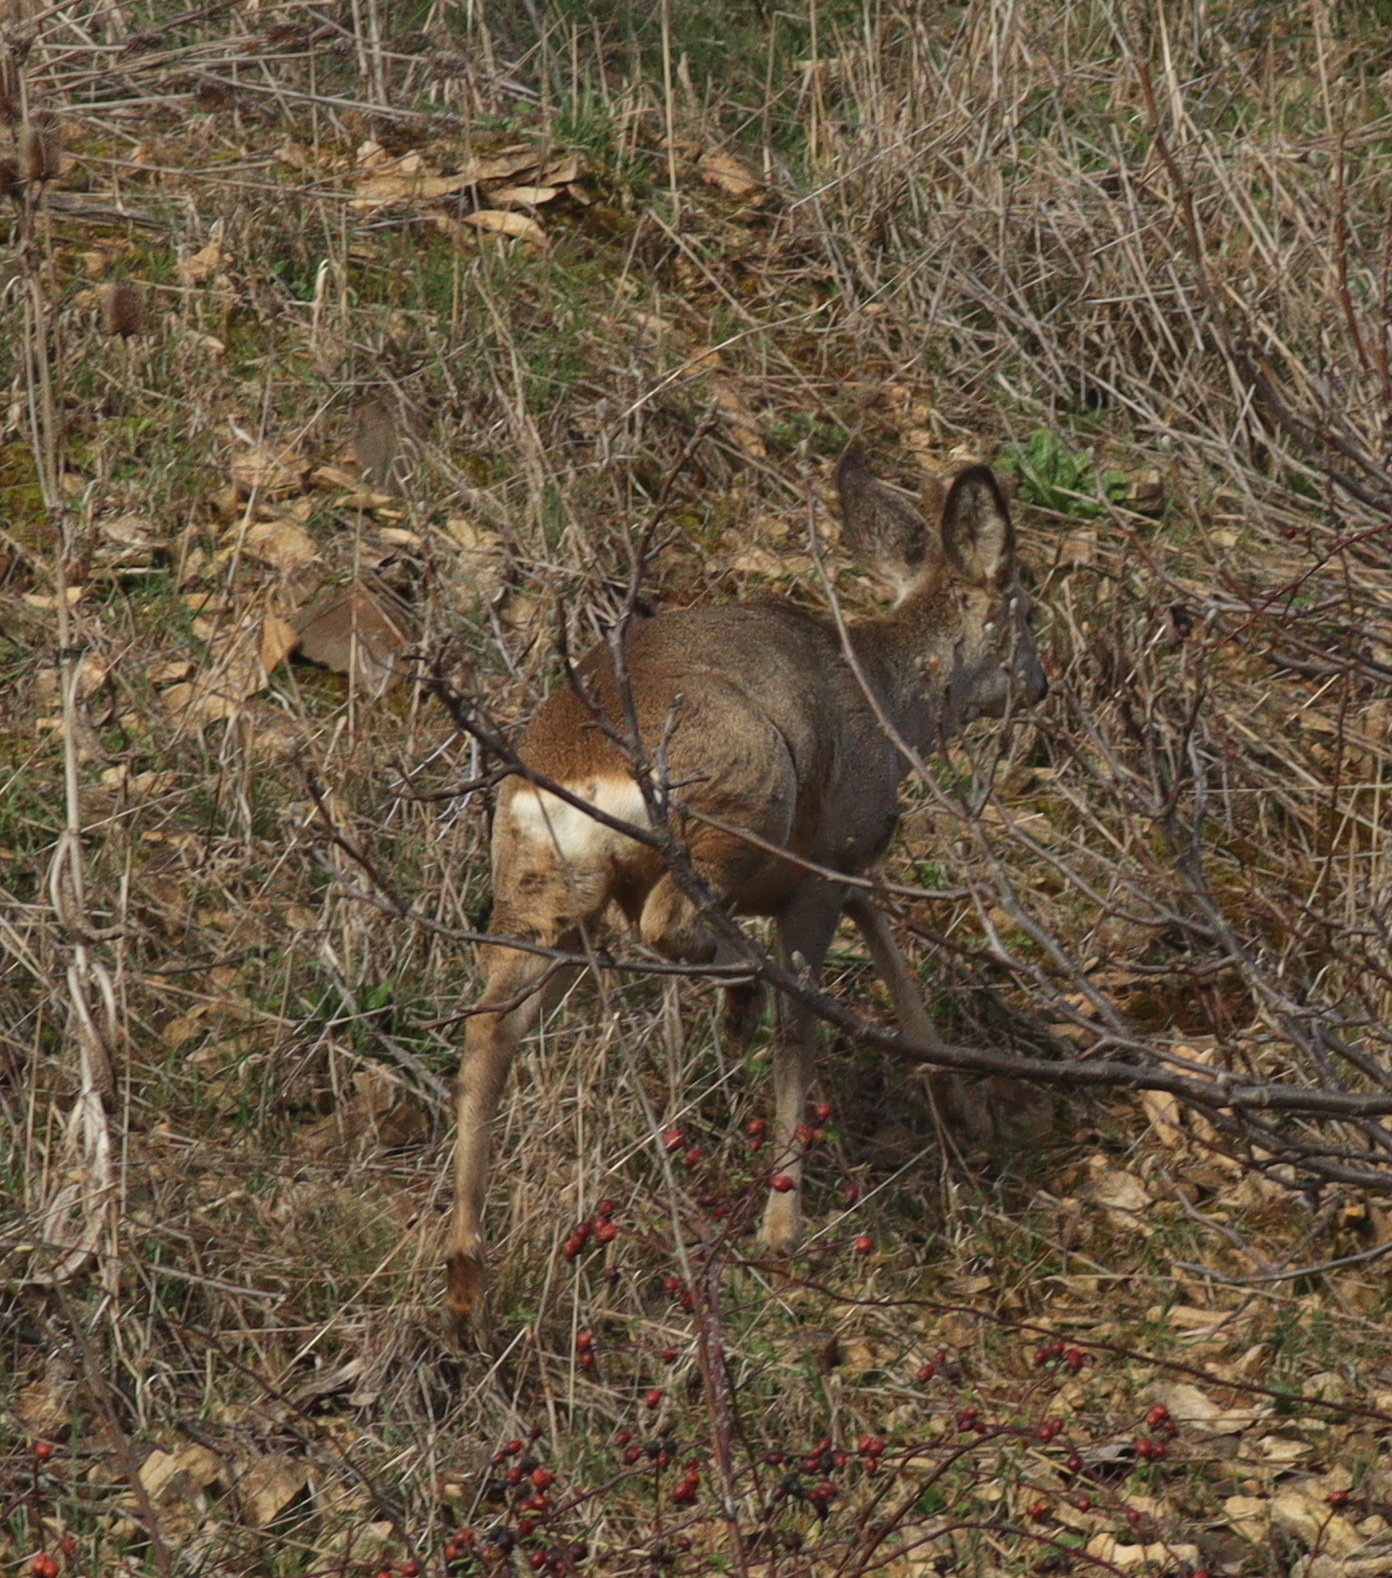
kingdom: Animalia
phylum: Chordata
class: Mammalia
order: Artiodactyla
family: Cervidae
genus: Capreolus
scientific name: Capreolus capreolus
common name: Western roe deer
